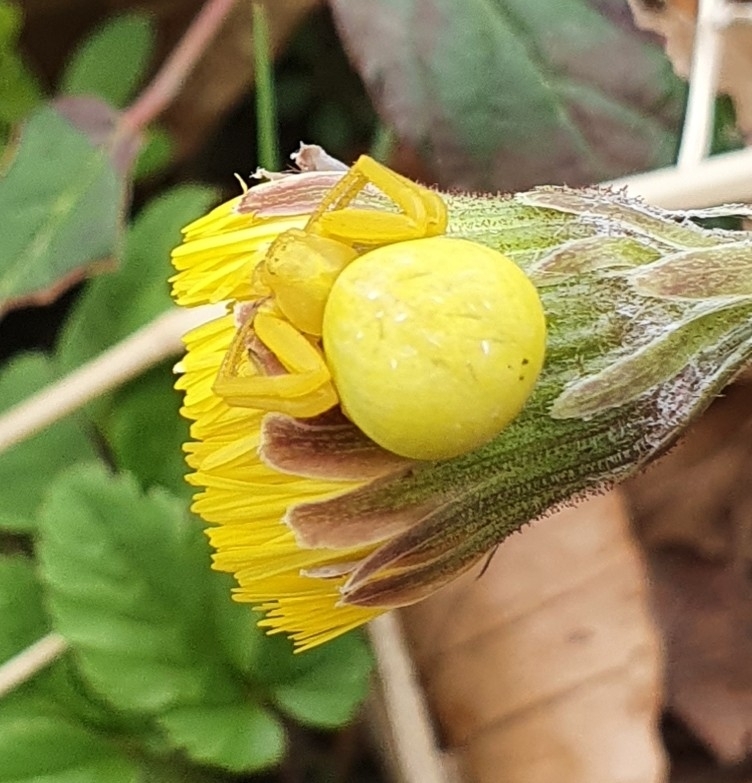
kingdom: Animalia
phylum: Arthropoda
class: Arachnida
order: Araneae
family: Thomisidae
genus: Misumena
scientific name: Misumena vatia
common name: Goldenrod crab spider
